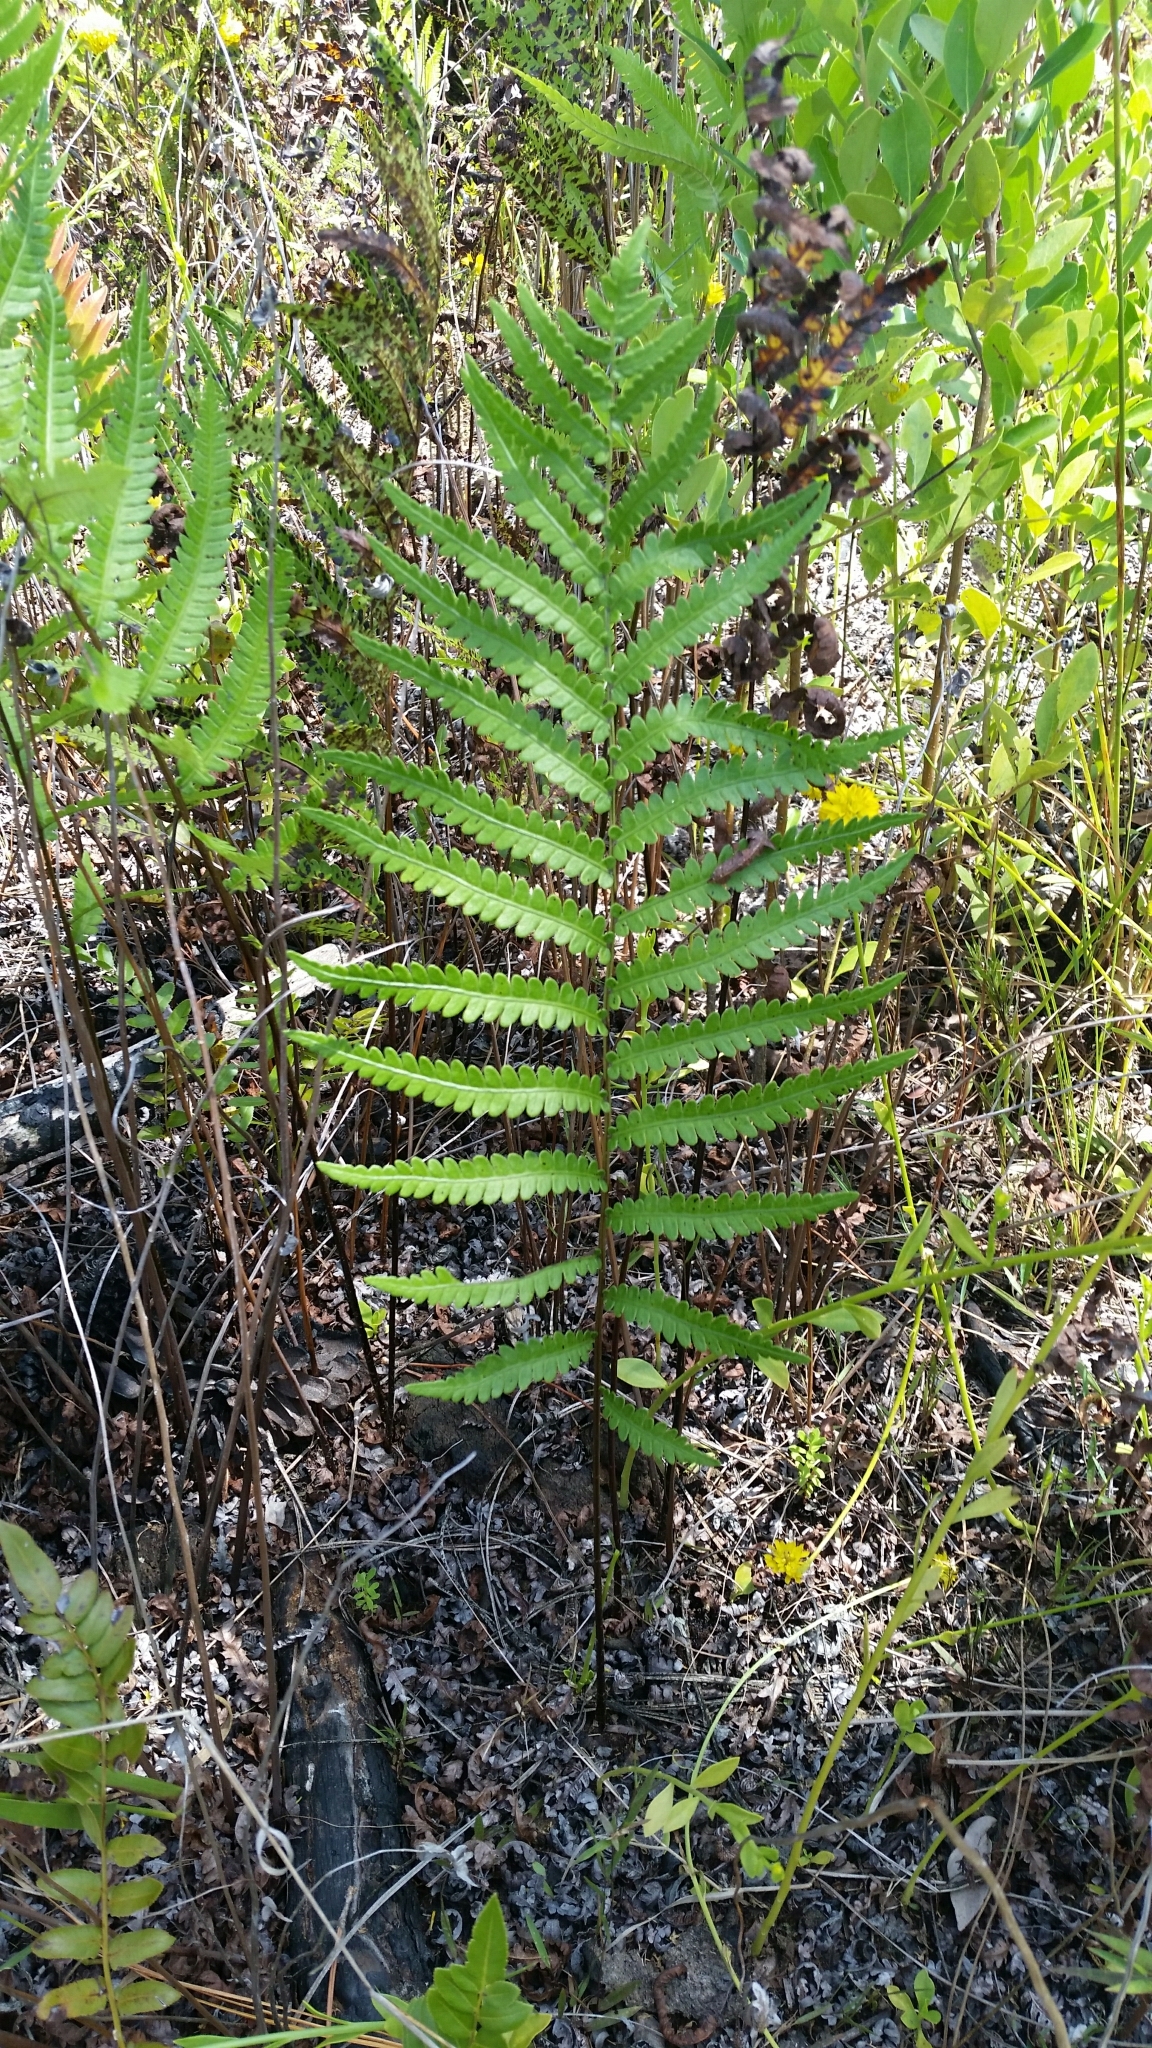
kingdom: Plantae
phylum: Tracheophyta
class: Polypodiopsida
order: Polypodiales
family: Blechnaceae
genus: Anchistea
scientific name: Anchistea virginica
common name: Virginia chain fern
